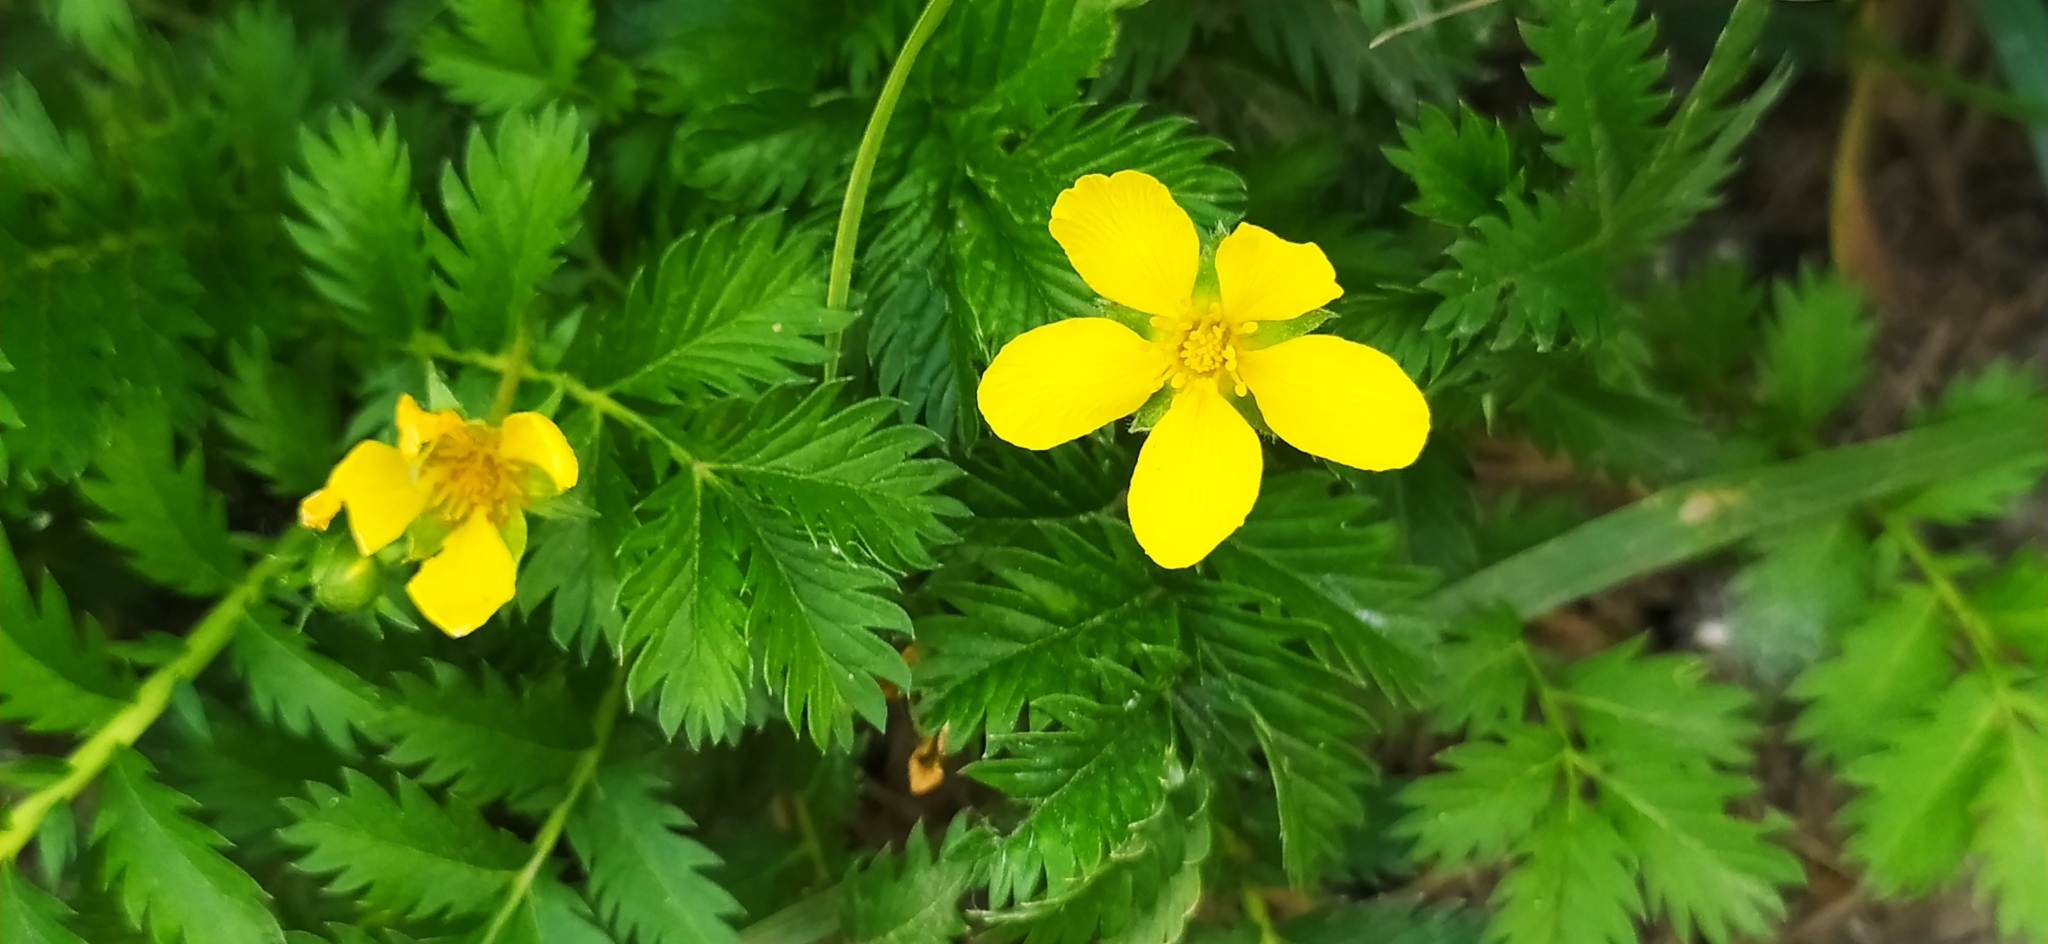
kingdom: Plantae
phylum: Tracheophyta
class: Magnoliopsida
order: Rosales
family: Rosaceae
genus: Argentina
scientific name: Argentina anserina
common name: Common silverweed
